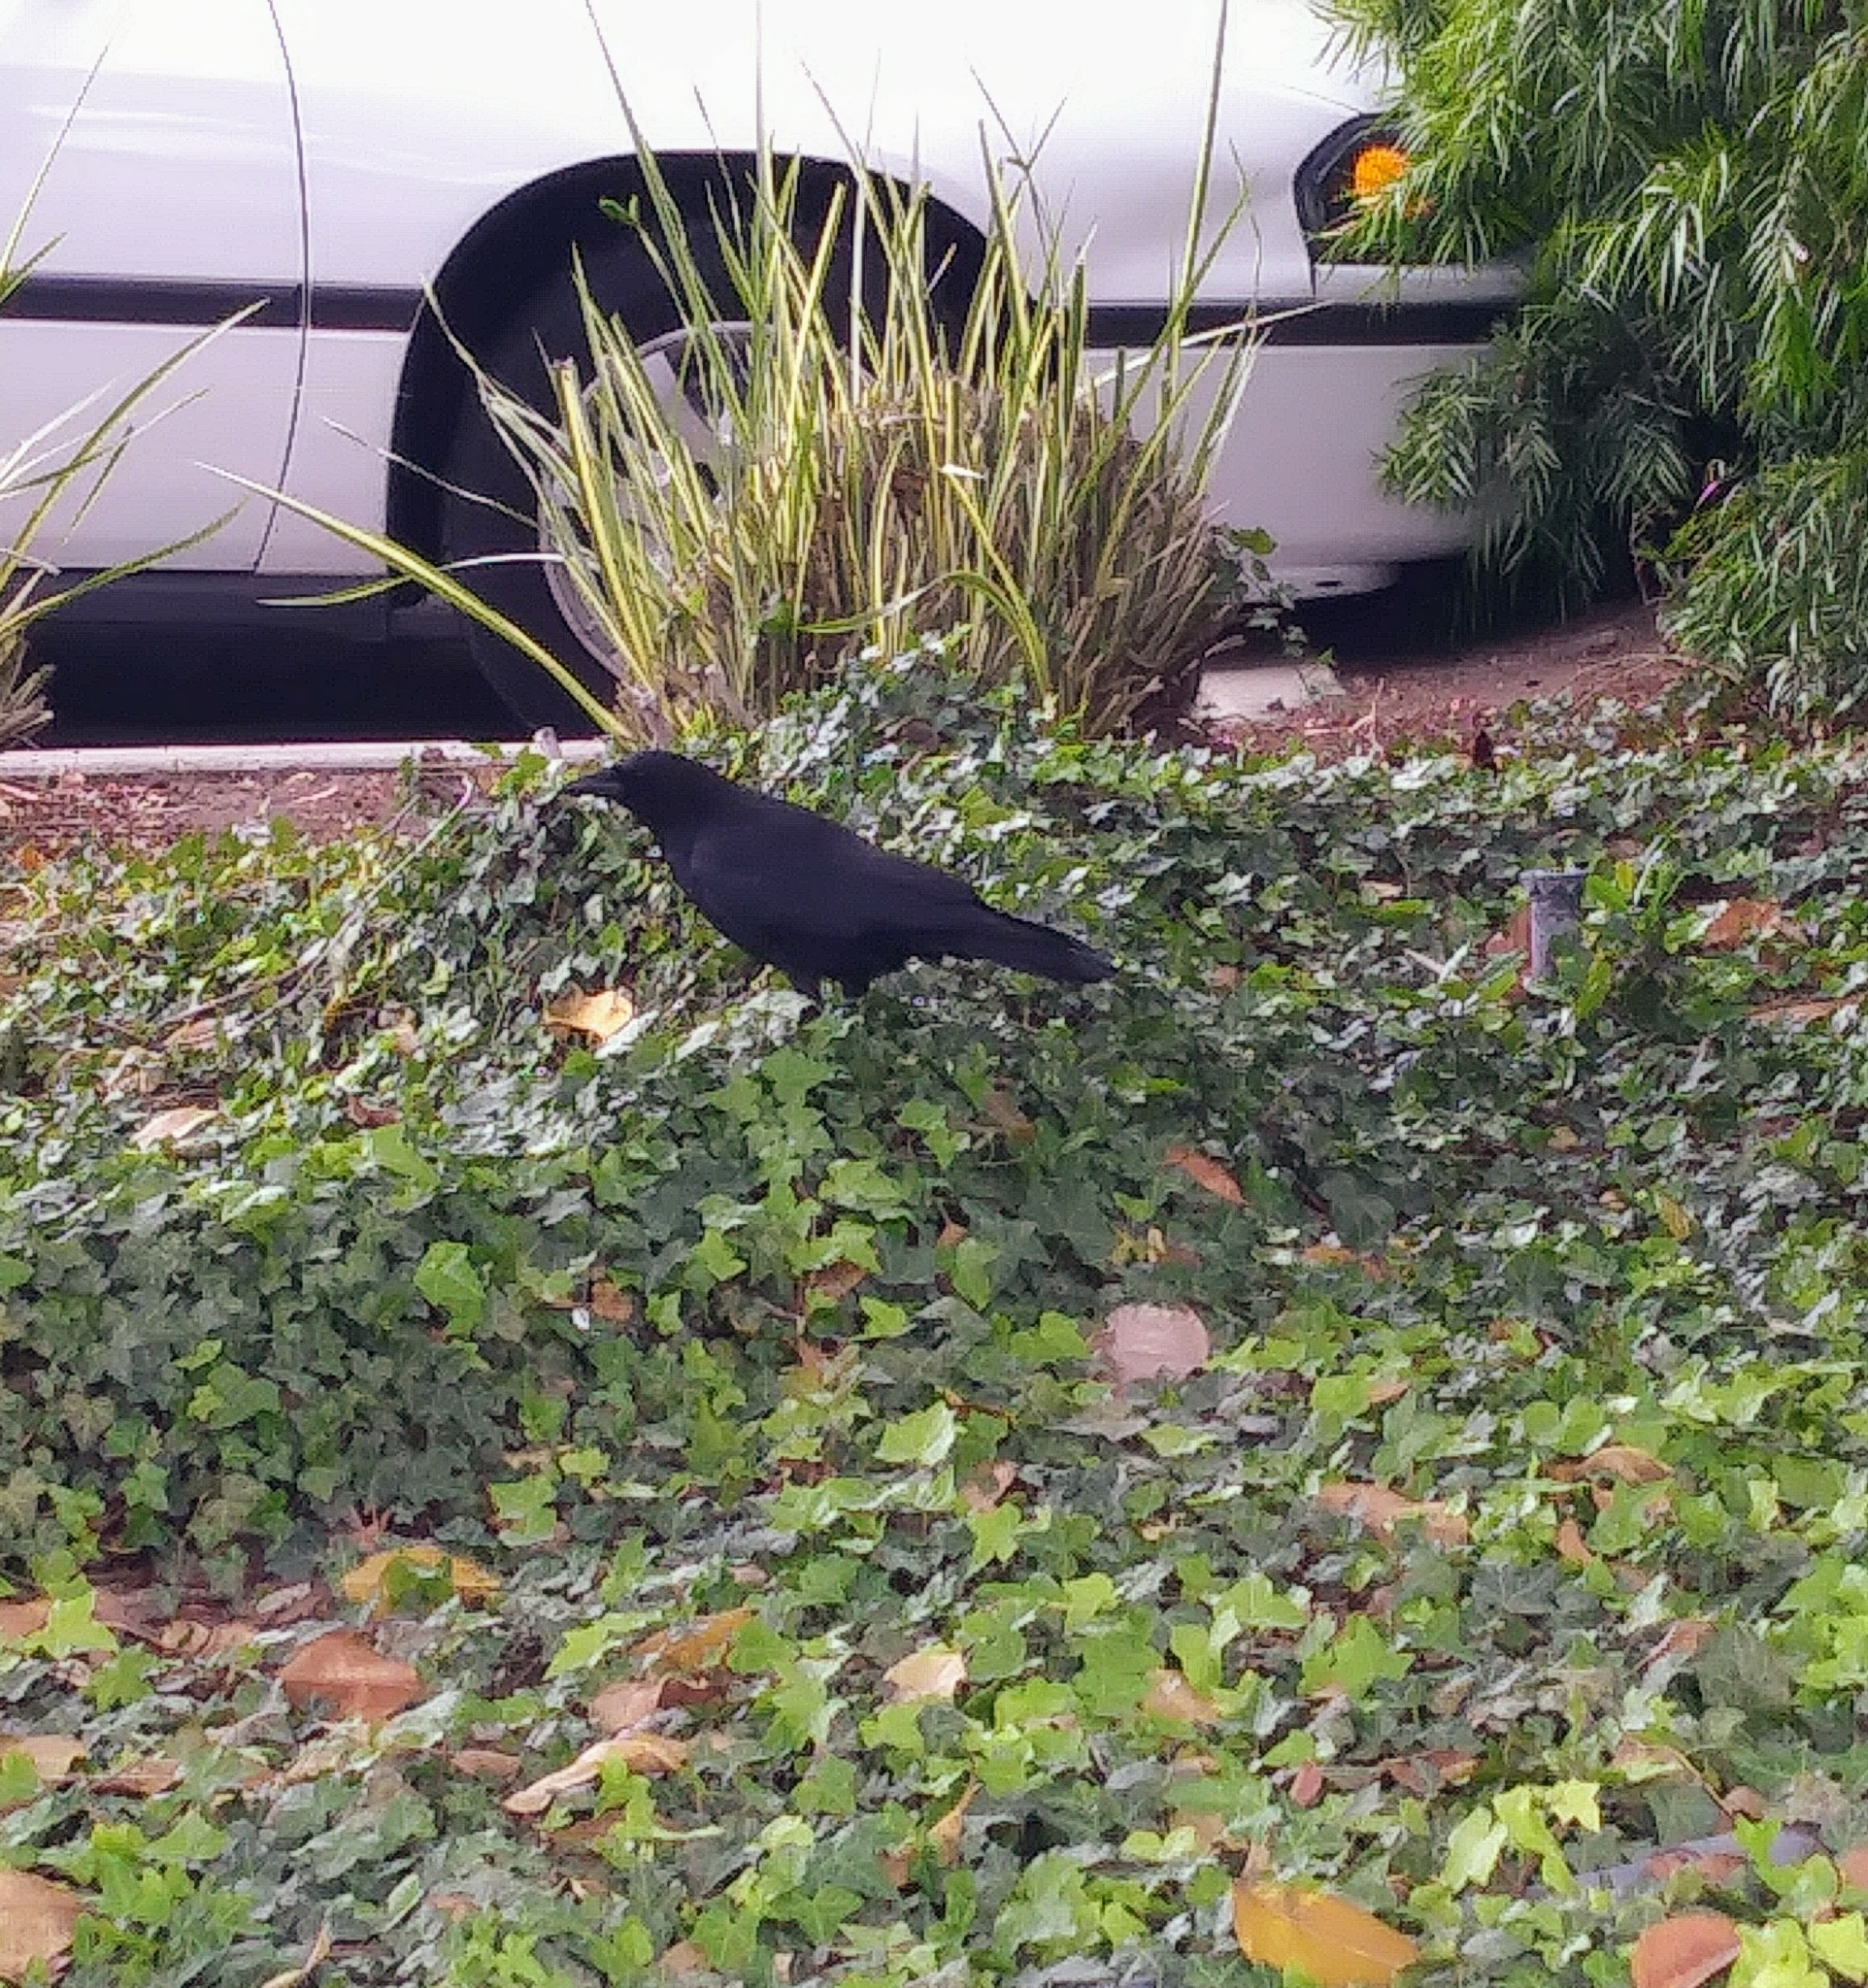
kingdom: Animalia
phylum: Chordata
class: Aves
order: Passeriformes
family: Corvidae
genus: Corvus
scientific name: Corvus brachyrhynchos
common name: American crow
